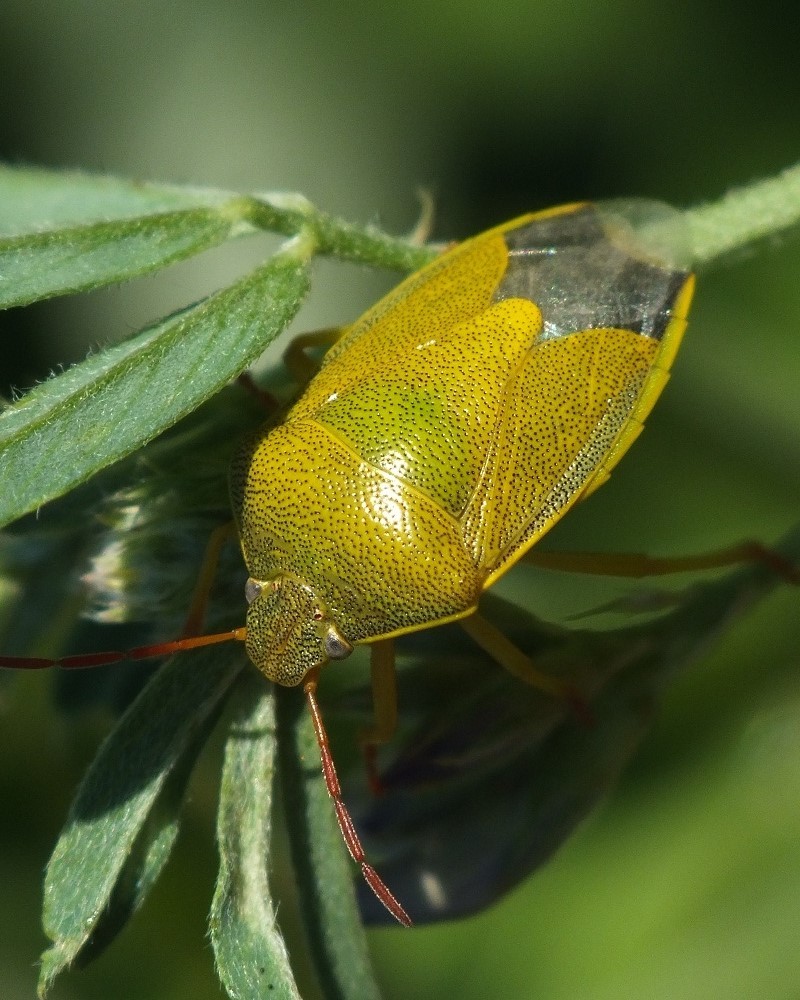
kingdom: Animalia
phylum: Arthropoda
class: Insecta
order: Hemiptera
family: Pentatomidae
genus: Piezodorus
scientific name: Piezodorus lituratus
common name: Stink bug
